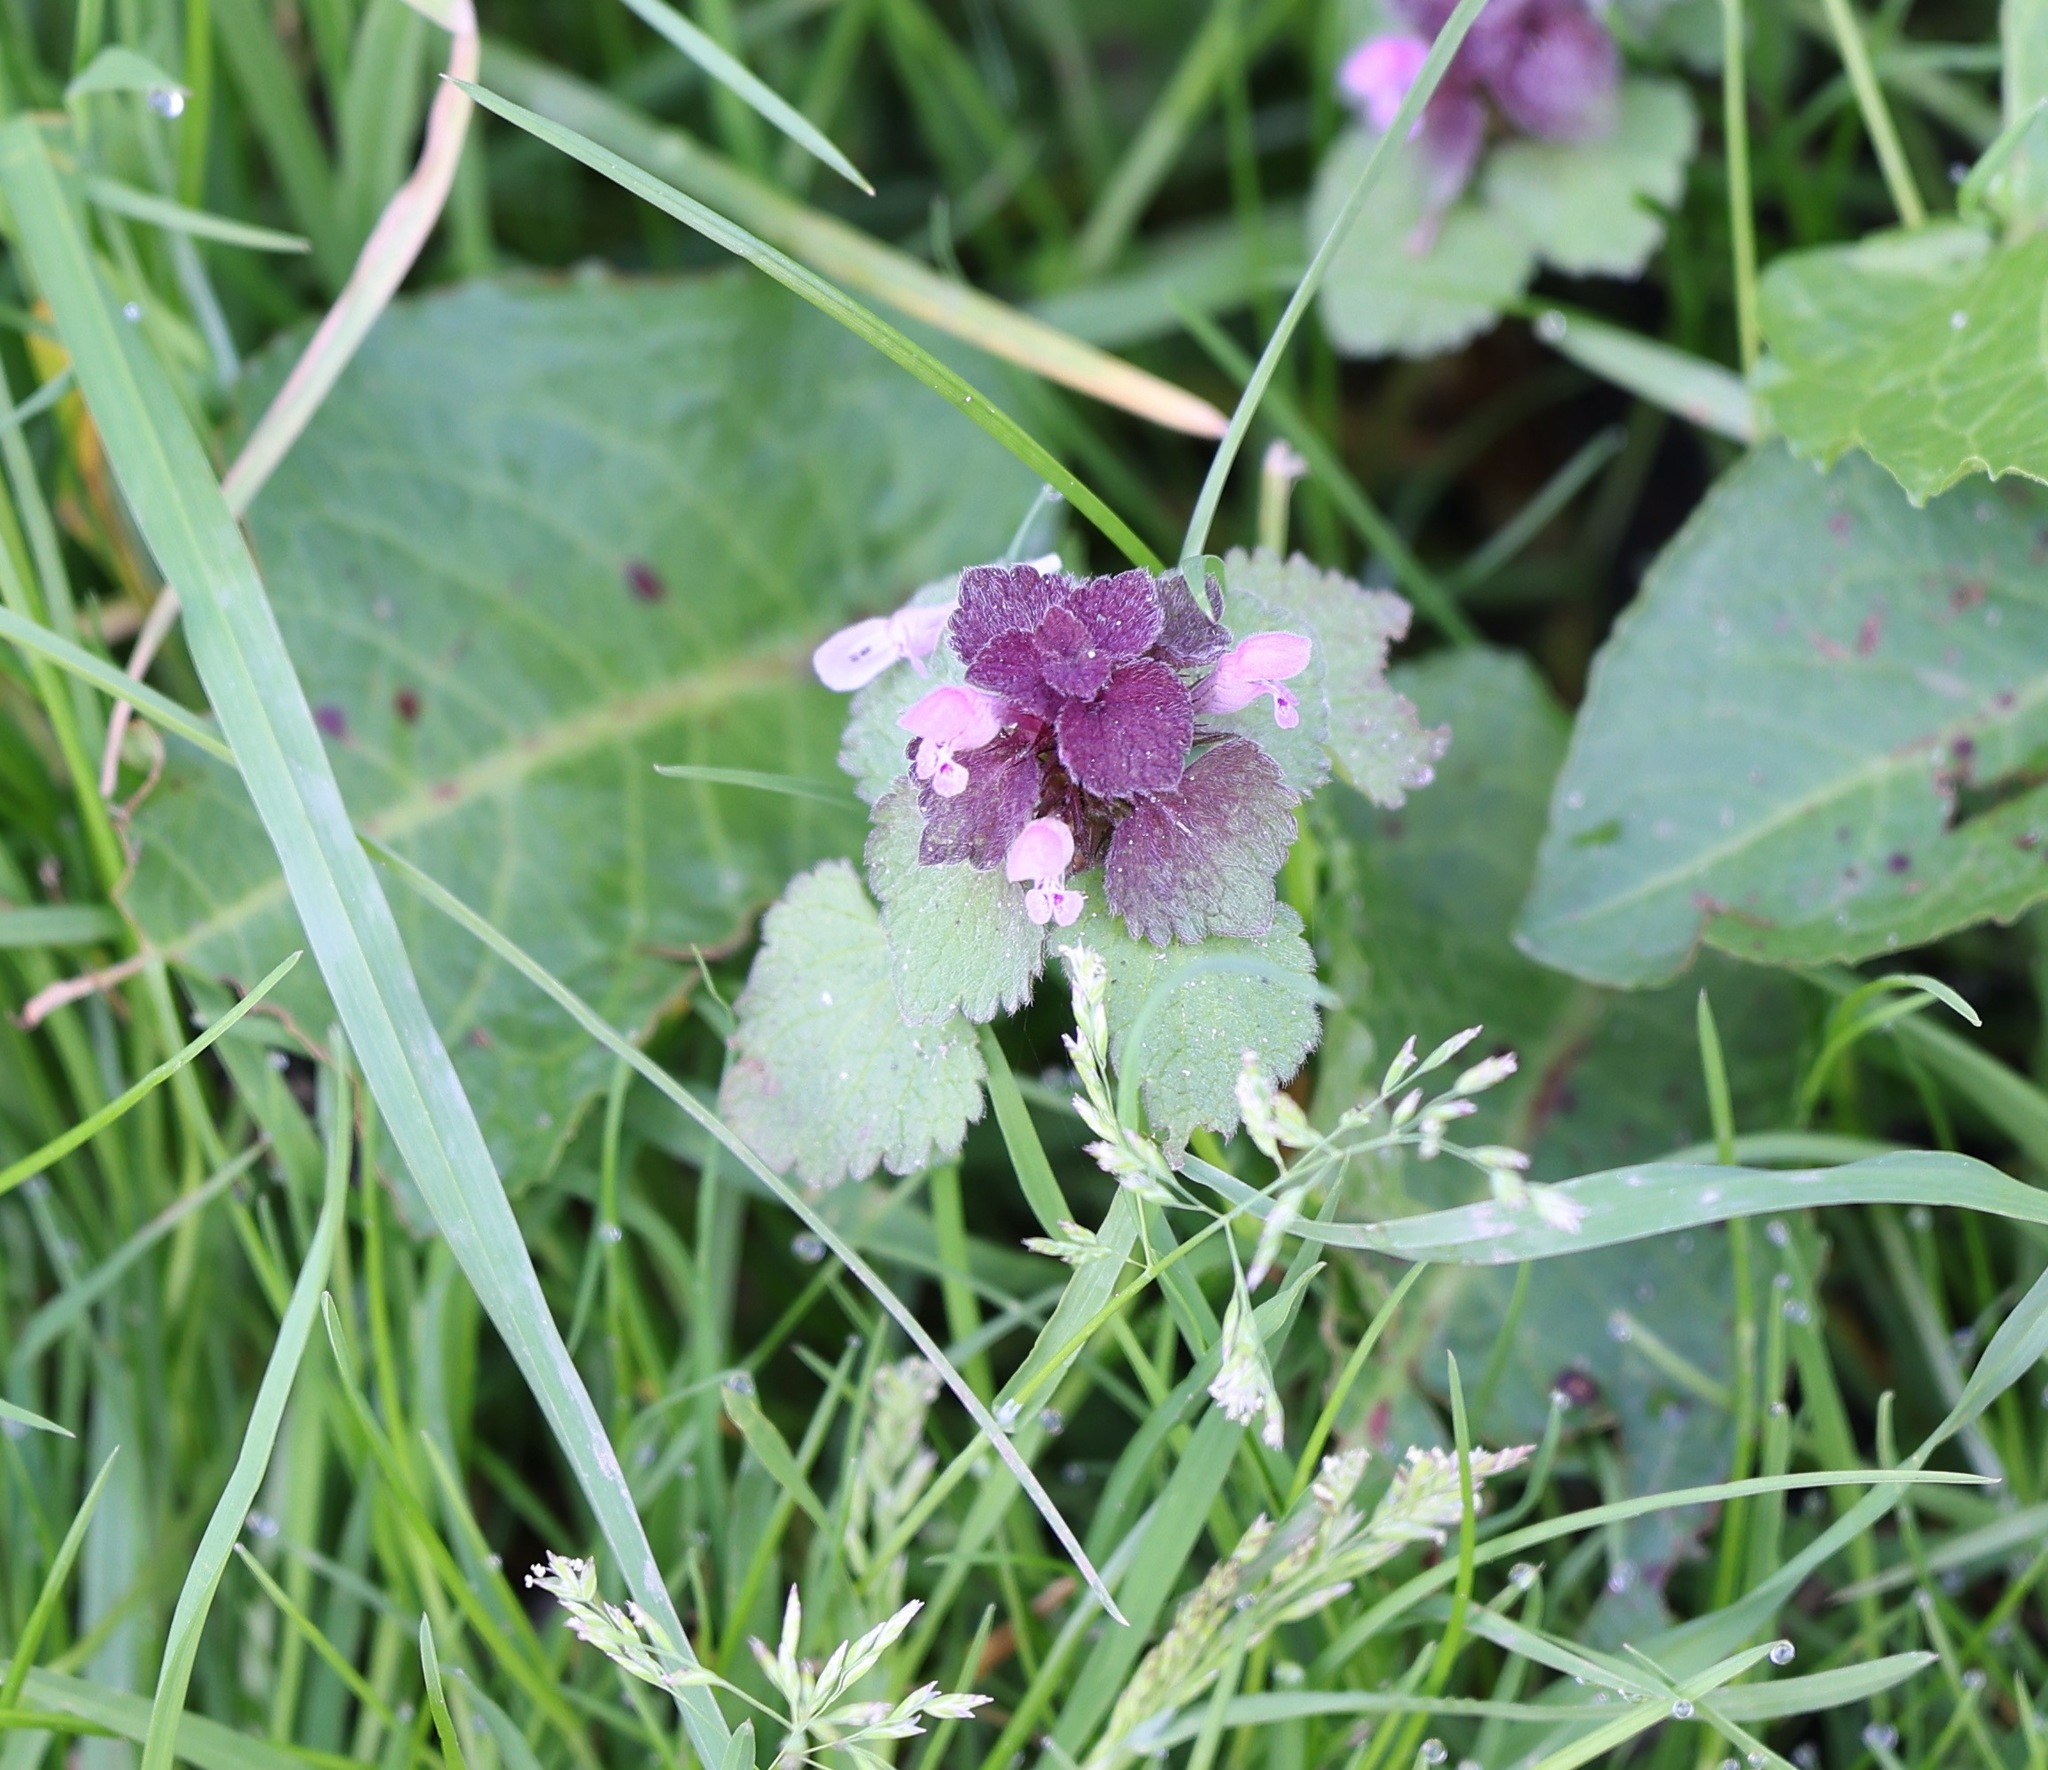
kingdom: Plantae
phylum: Tracheophyta
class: Magnoliopsida
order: Lamiales
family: Lamiaceae
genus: Lamium
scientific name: Lamium purpureum
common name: Red dead-nettle
